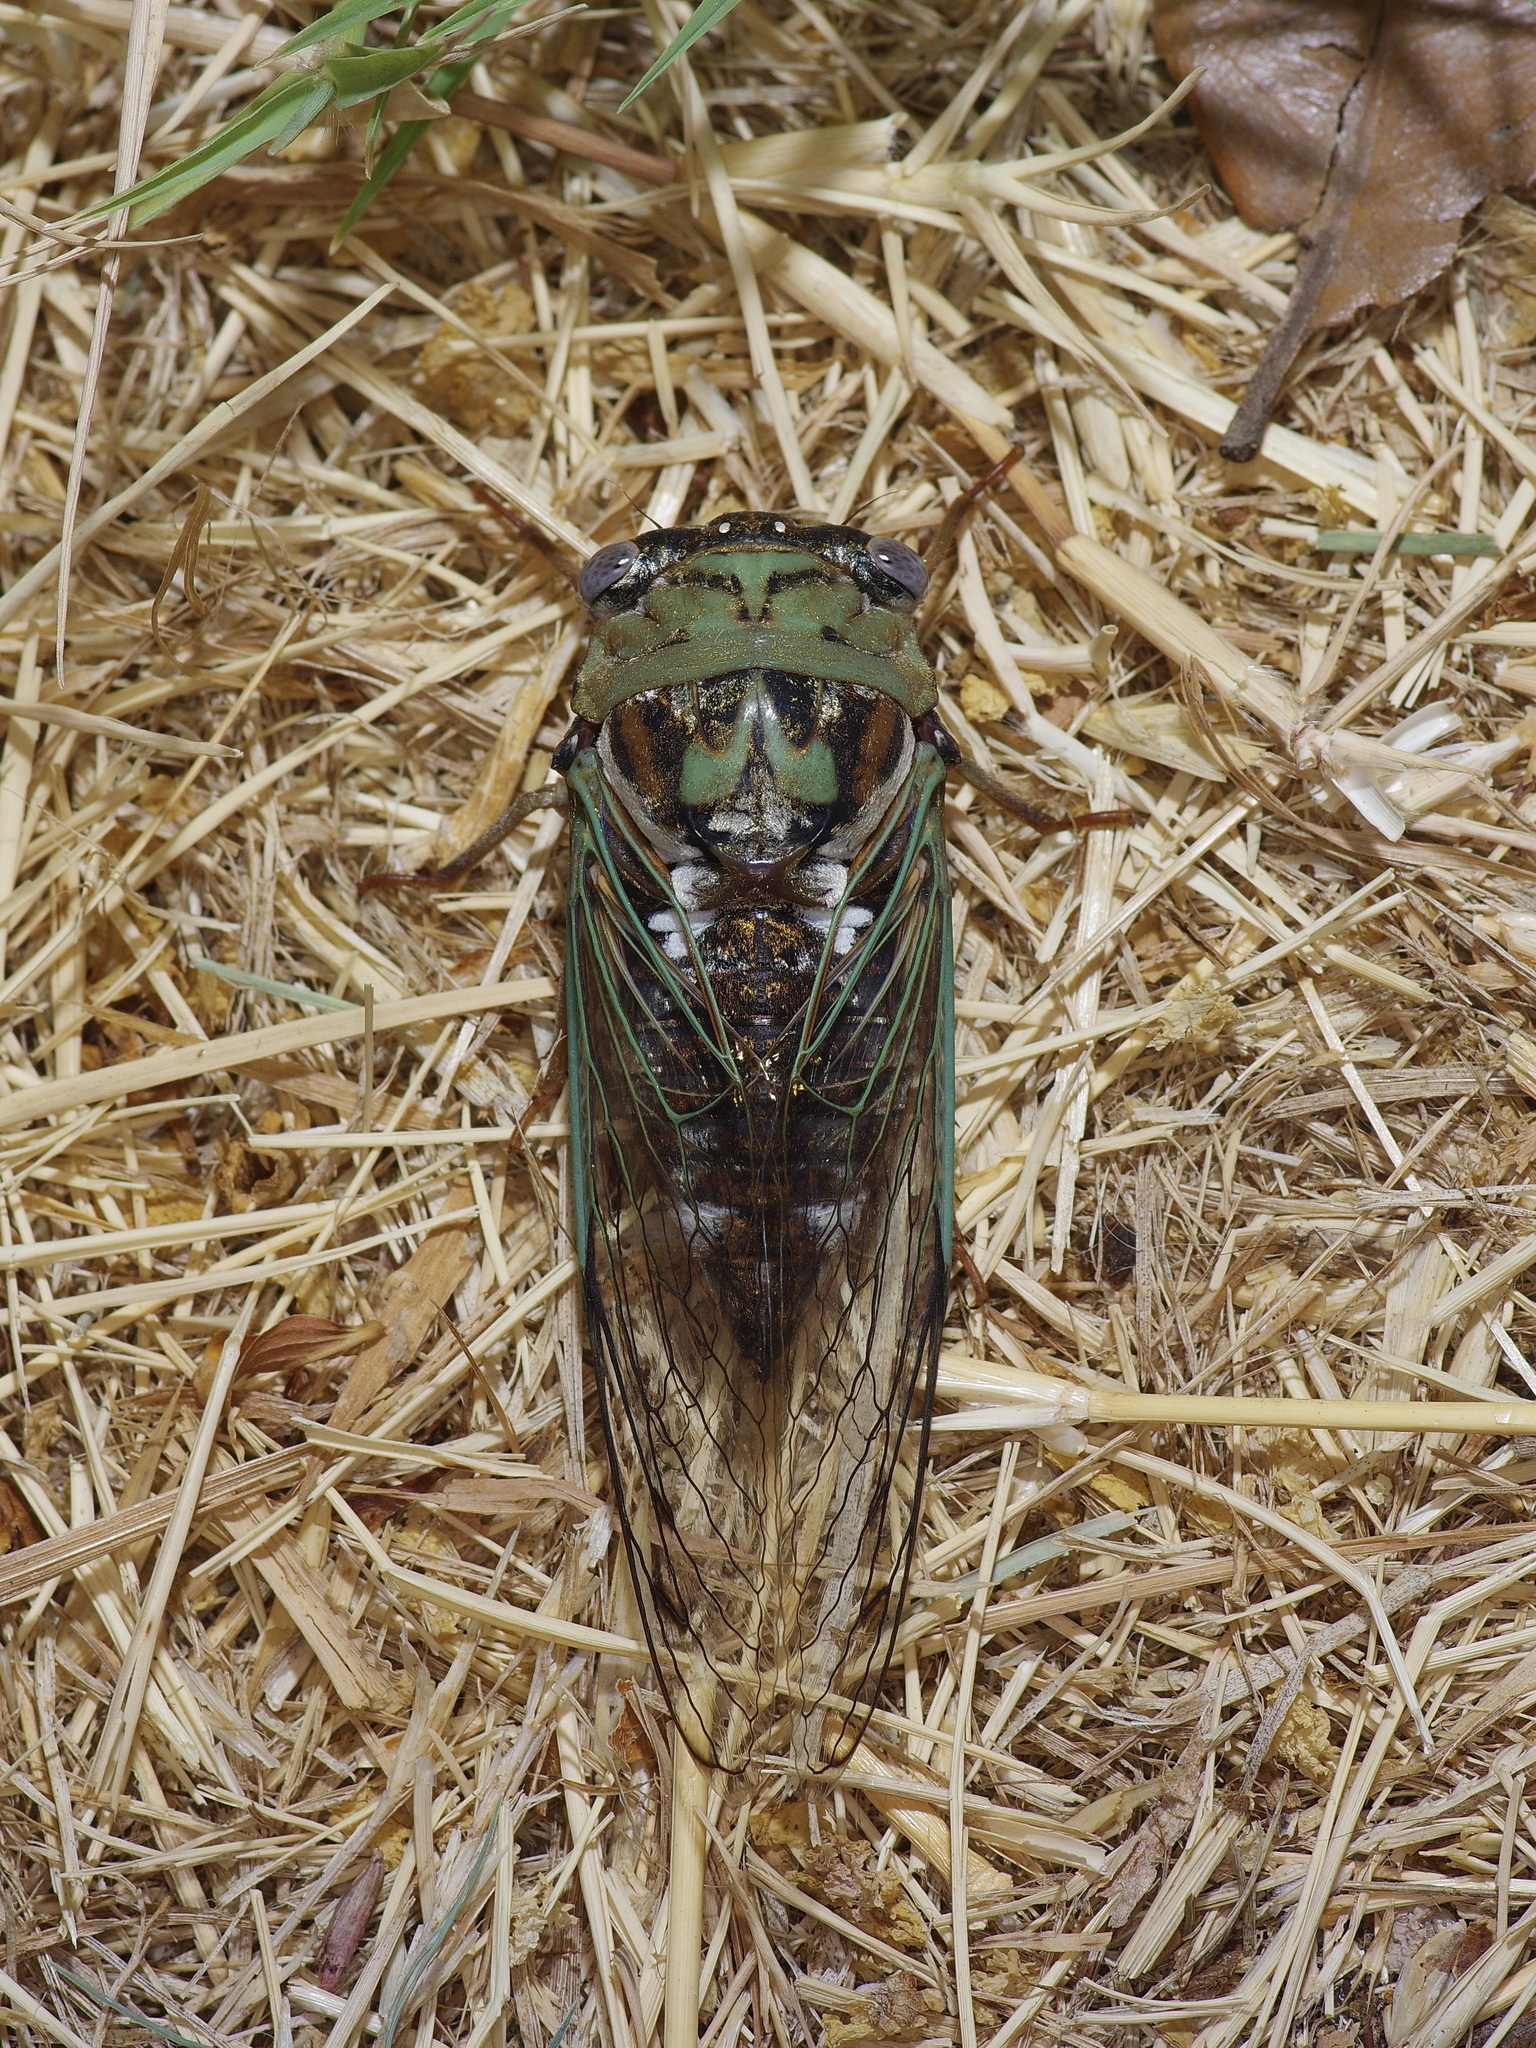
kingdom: Animalia
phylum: Arthropoda
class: Insecta
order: Hemiptera
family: Cicadidae
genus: Megatibicen
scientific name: Megatibicen resh
